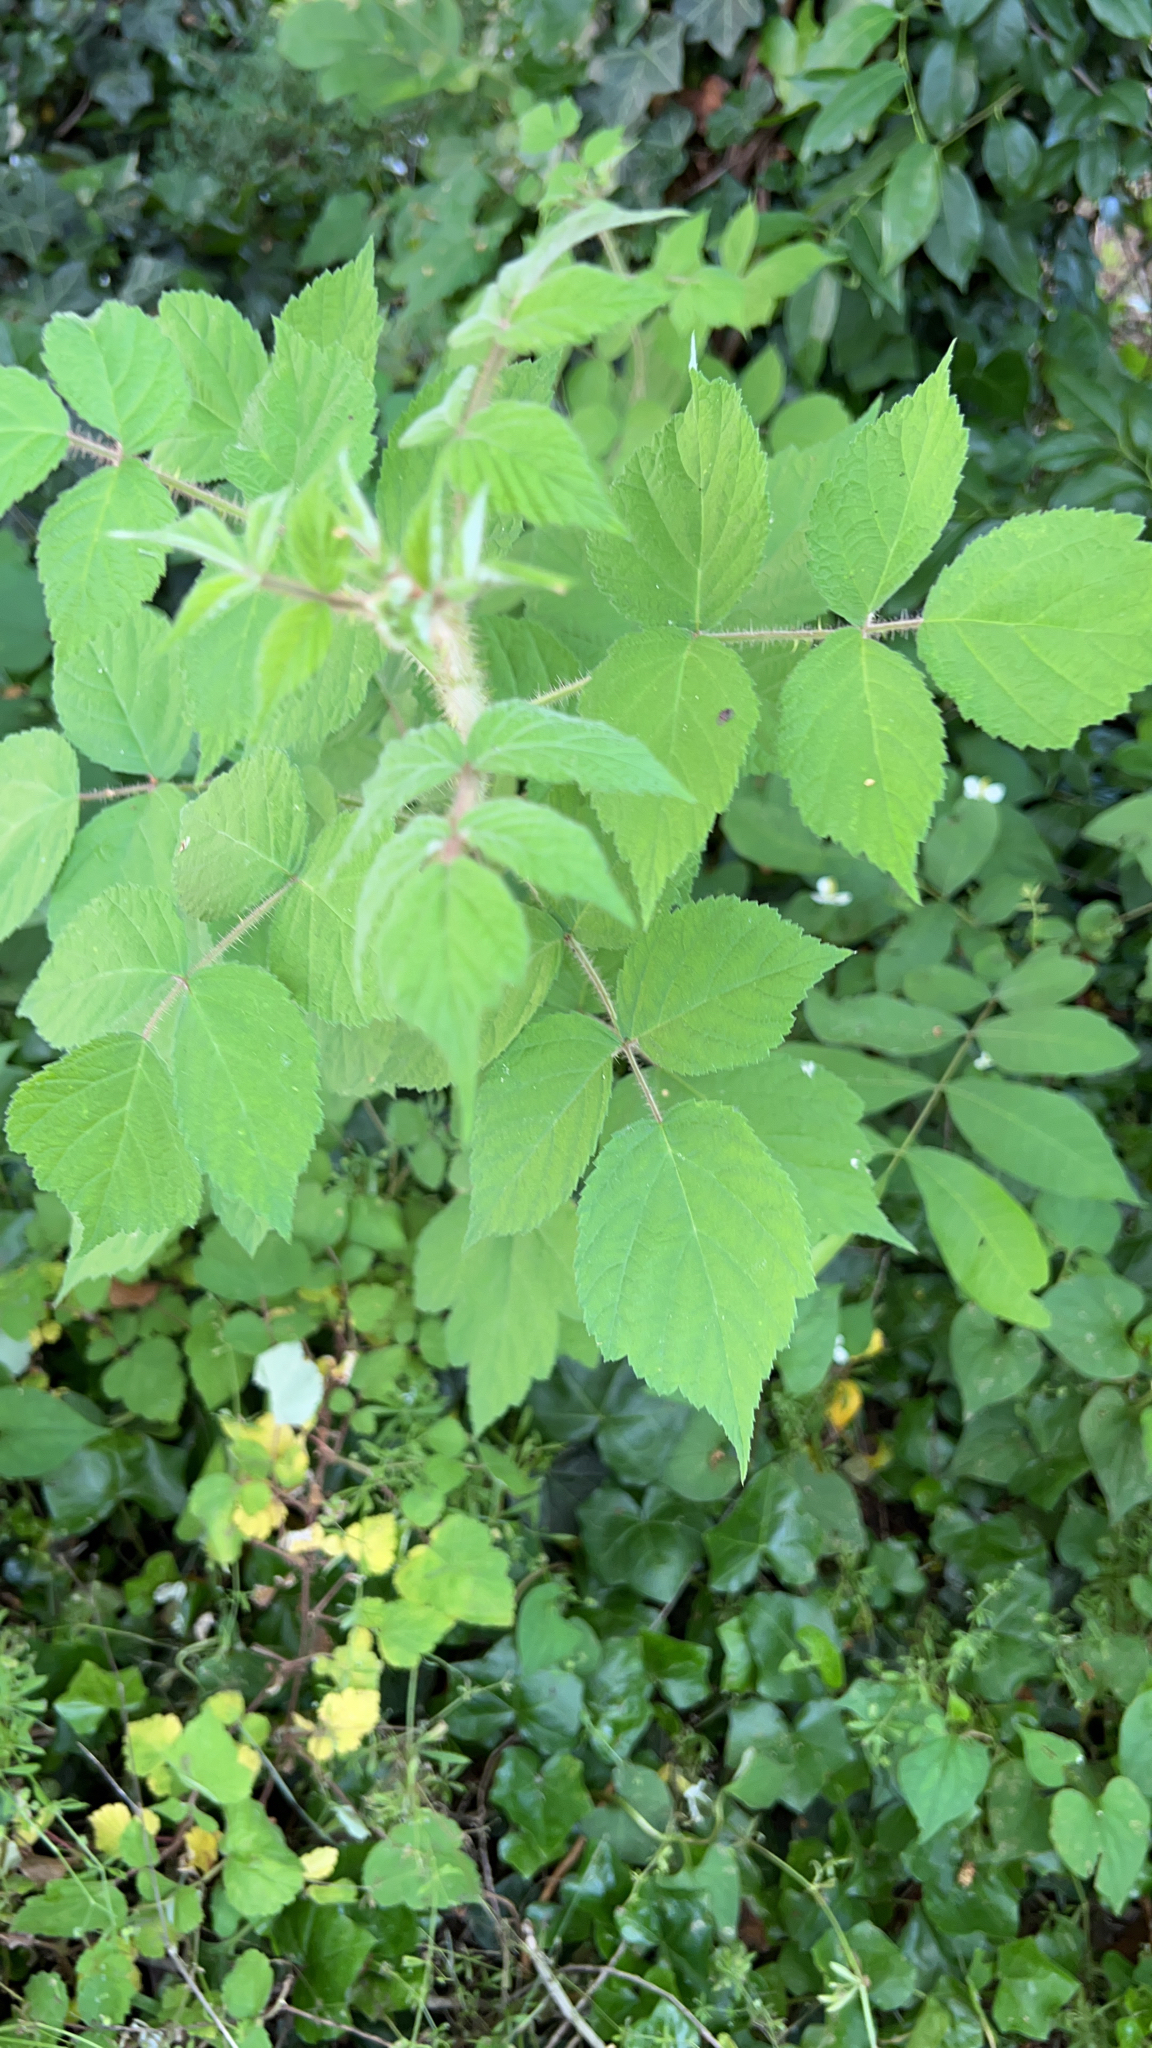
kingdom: Plantae
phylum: Tracheophyta
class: Magnoliopsida
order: Rosales
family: Rosaceae
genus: Rubus
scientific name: Rubus phoenicolasius
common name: Japanese wineberry
